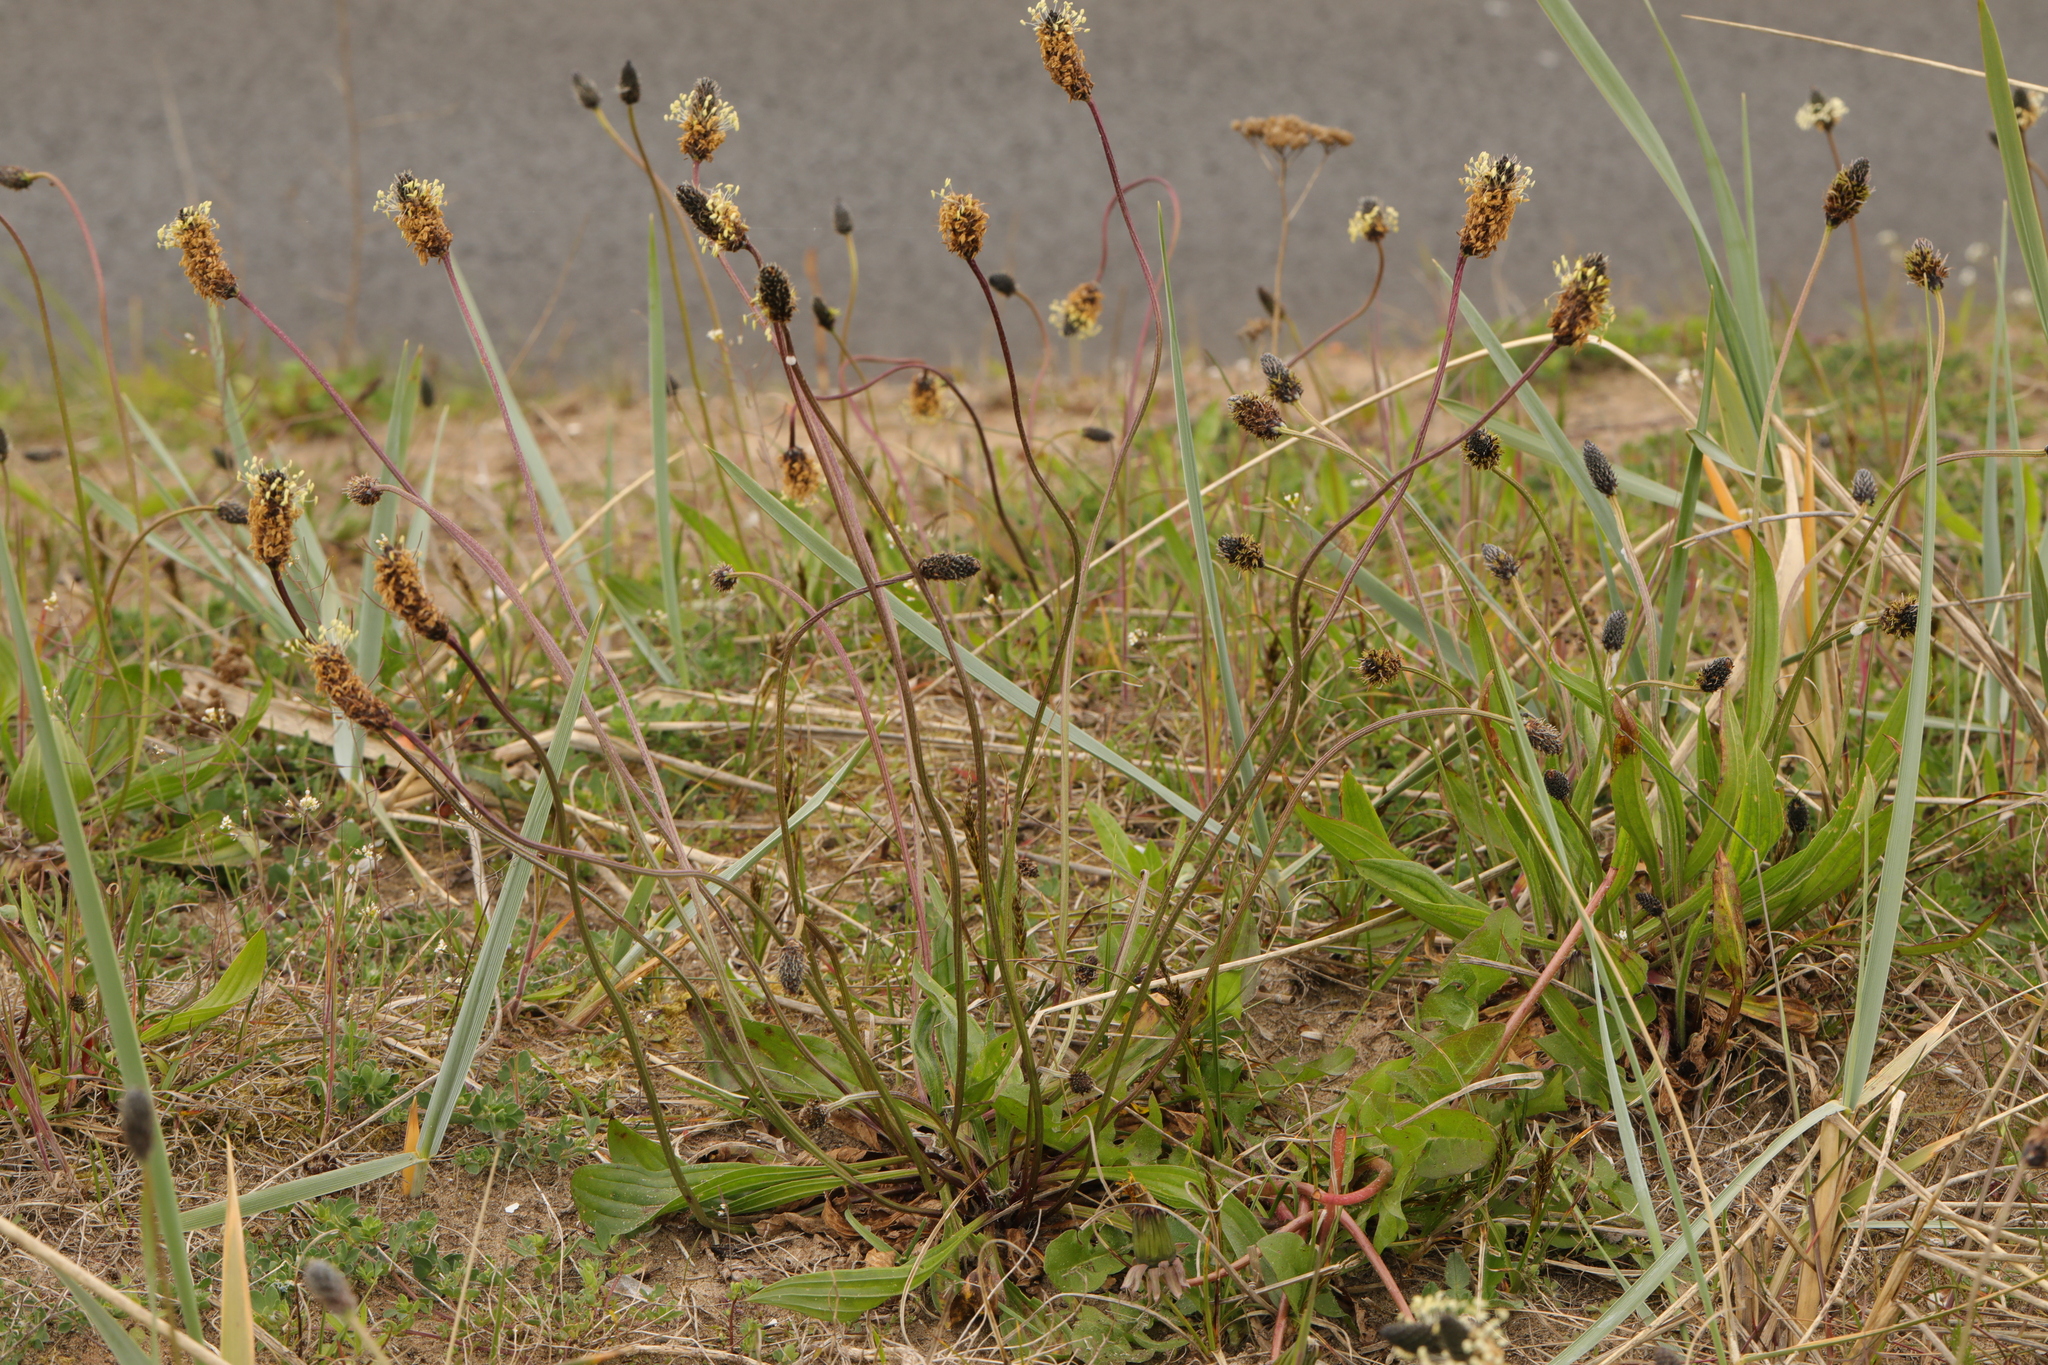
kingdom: Plantae
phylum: Tracheophyta
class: Magnoliopsida
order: Lamiales
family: Plantaginaceae
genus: Plantago
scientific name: Plantago lanceolata
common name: Ribwort plantain
